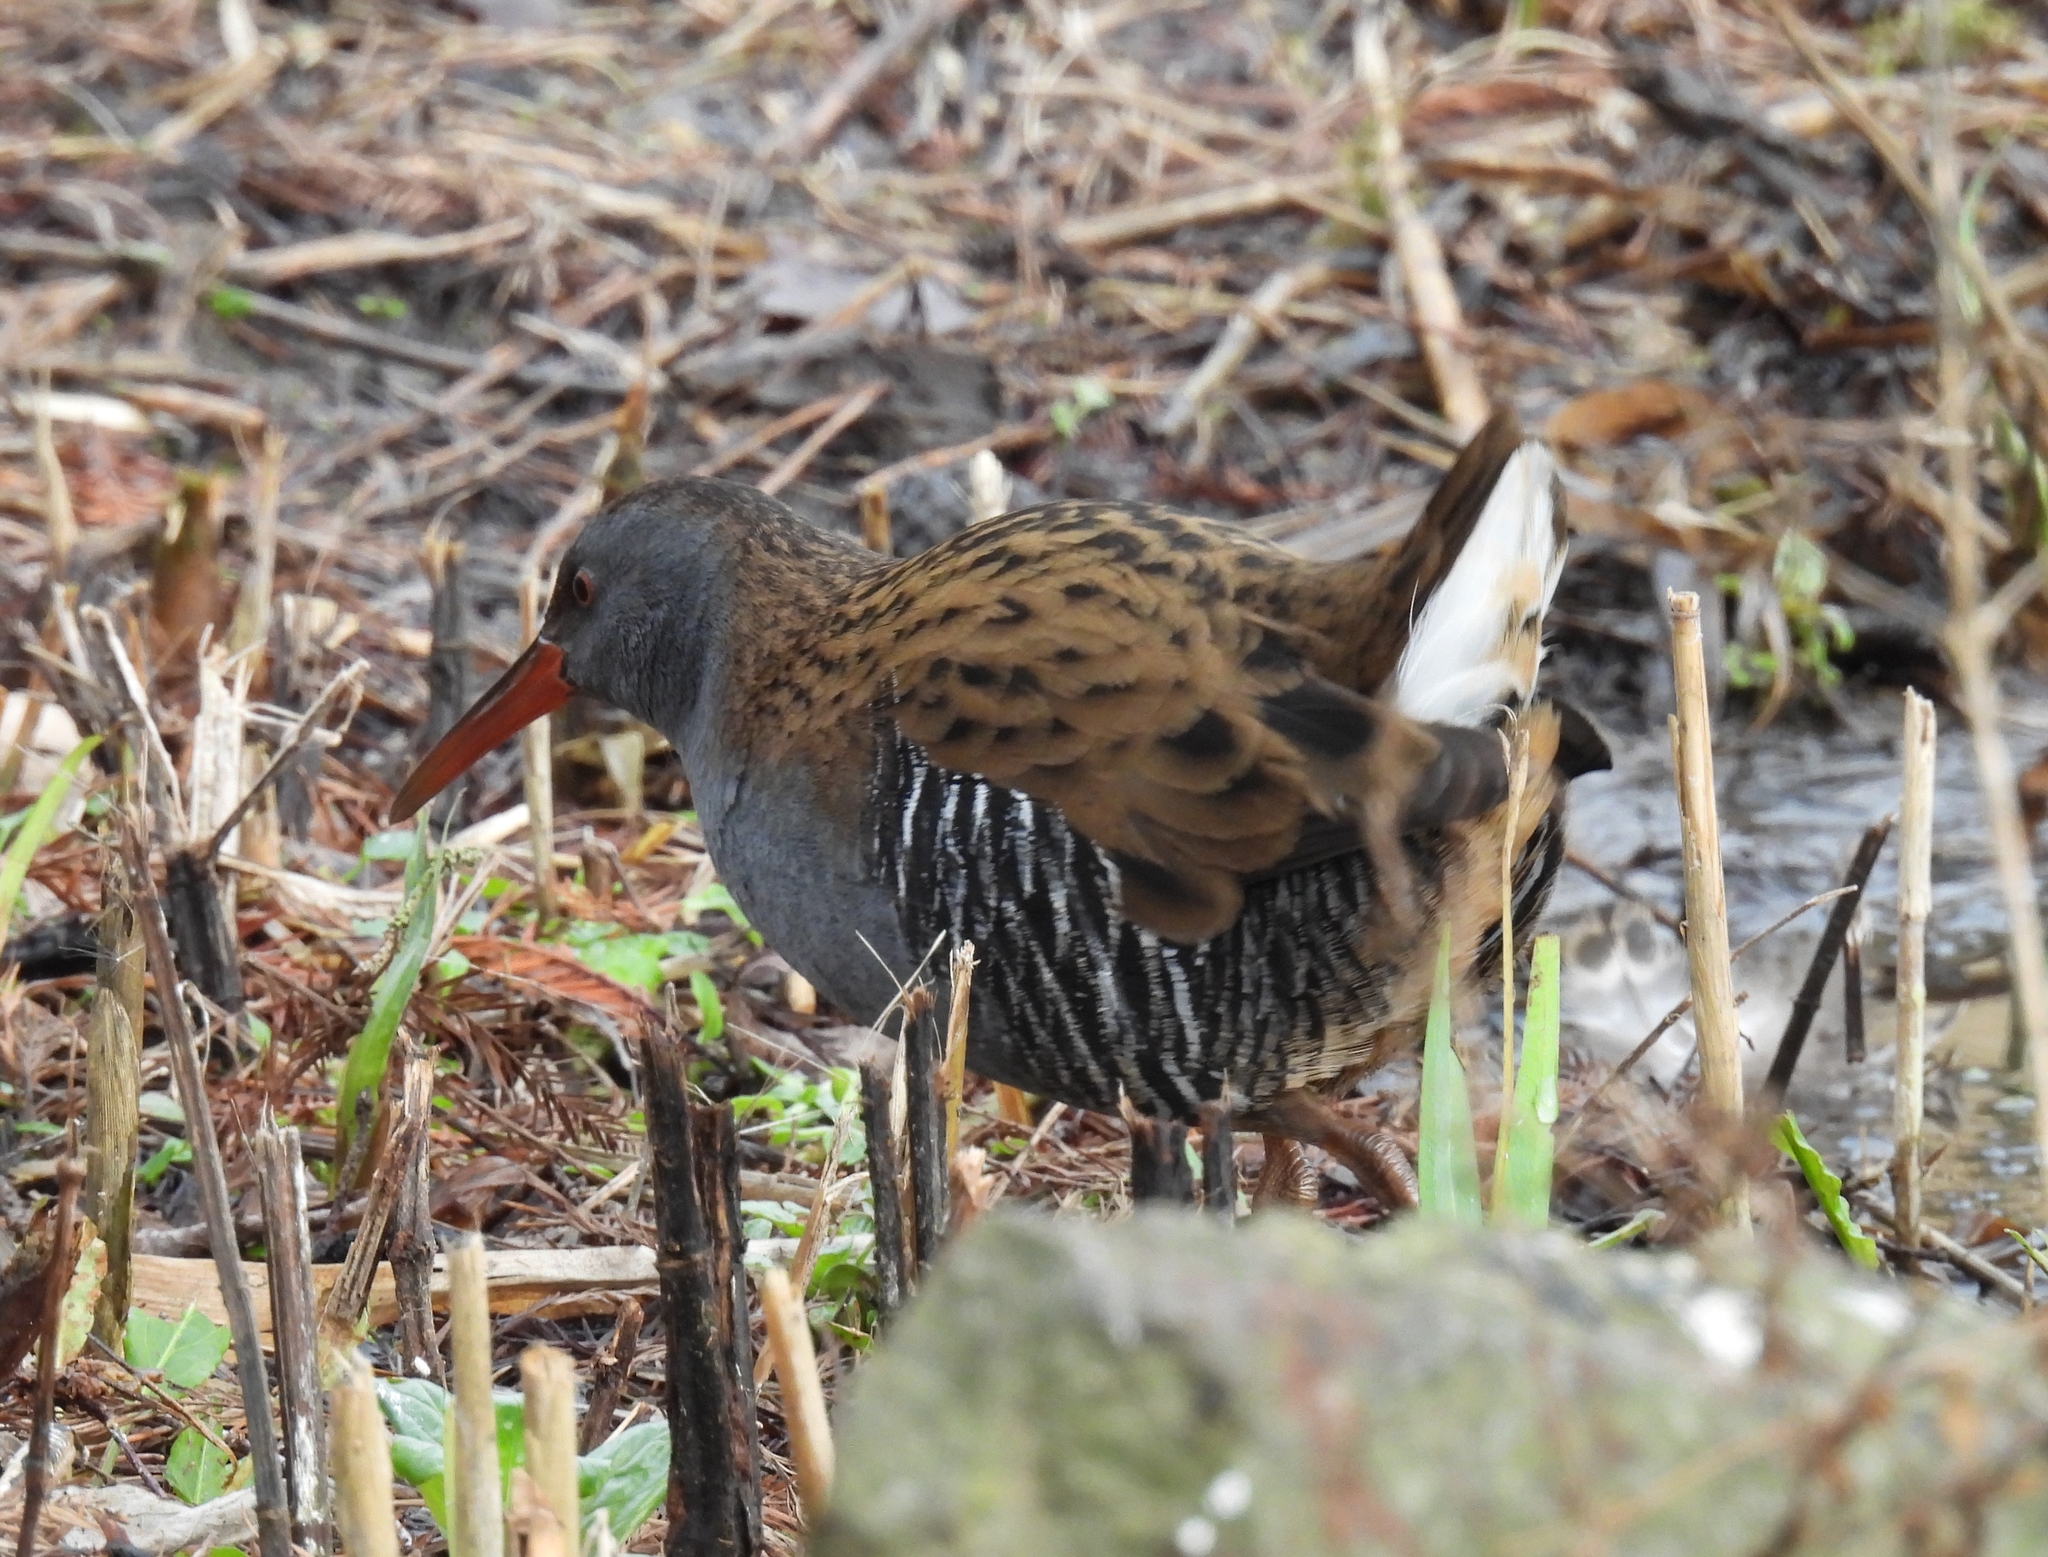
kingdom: Animalia
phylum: Chordata
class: Aves
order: Gruiformes
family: Rallidae
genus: Rallus
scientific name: Rallus aquaticus
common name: Water rail
